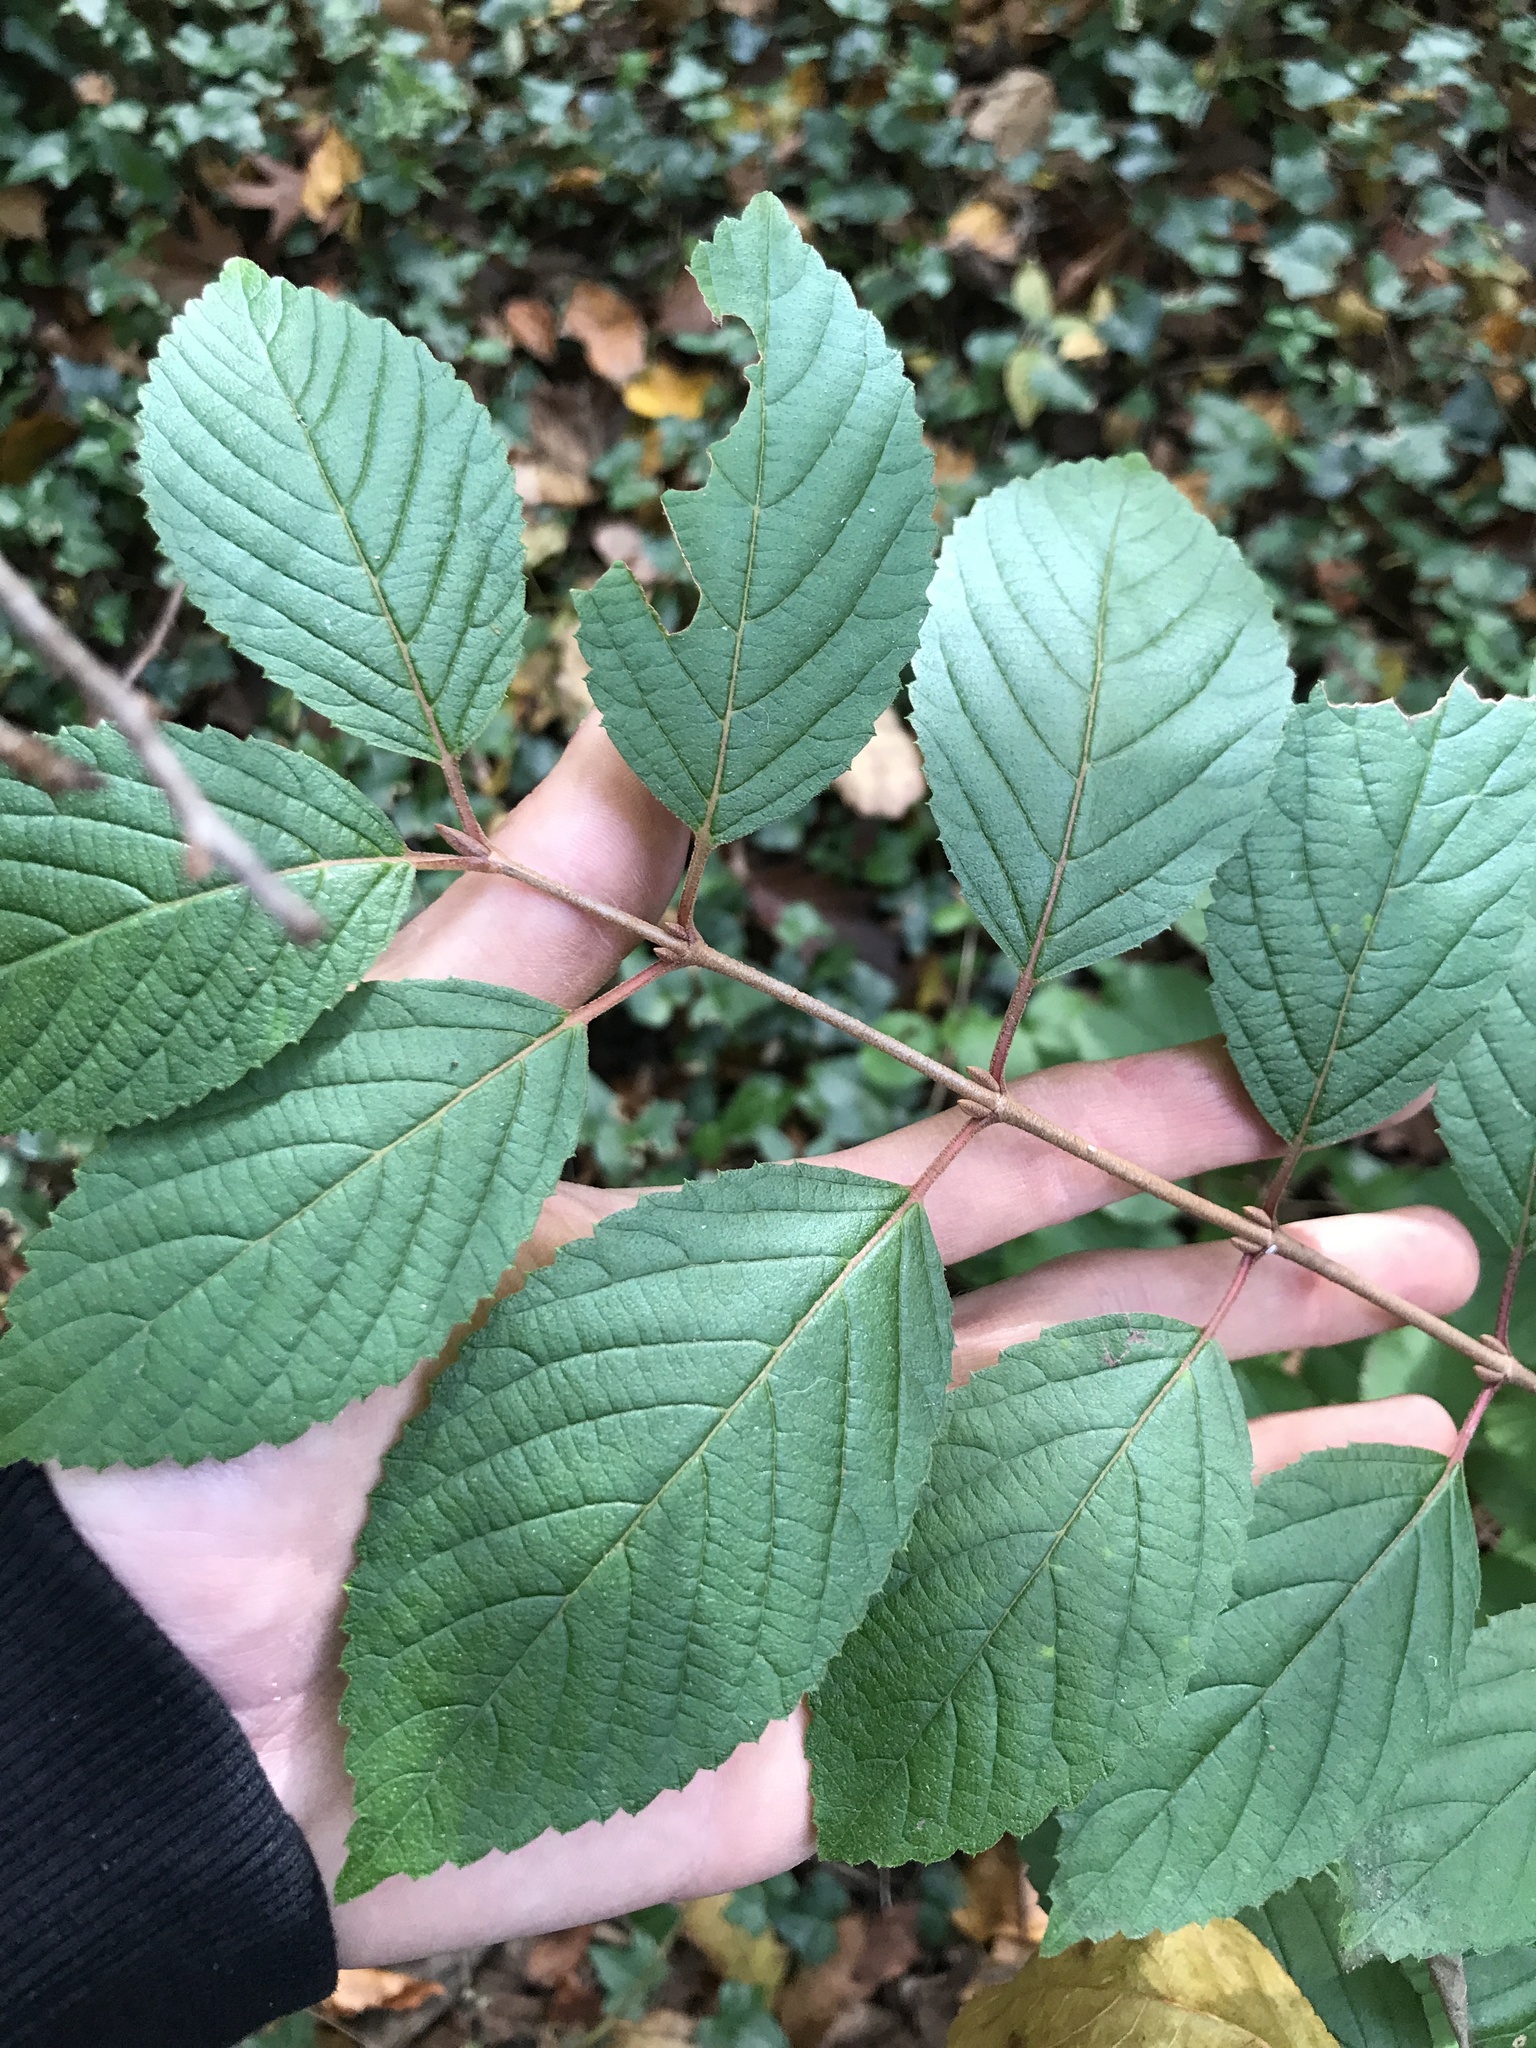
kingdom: Plantae
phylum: Tracheophyta
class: Magnoliopsida
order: Dipsacales
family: Viburnaceae
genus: Viburnum
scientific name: Viburnum plicatum
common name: Japanese snowball
